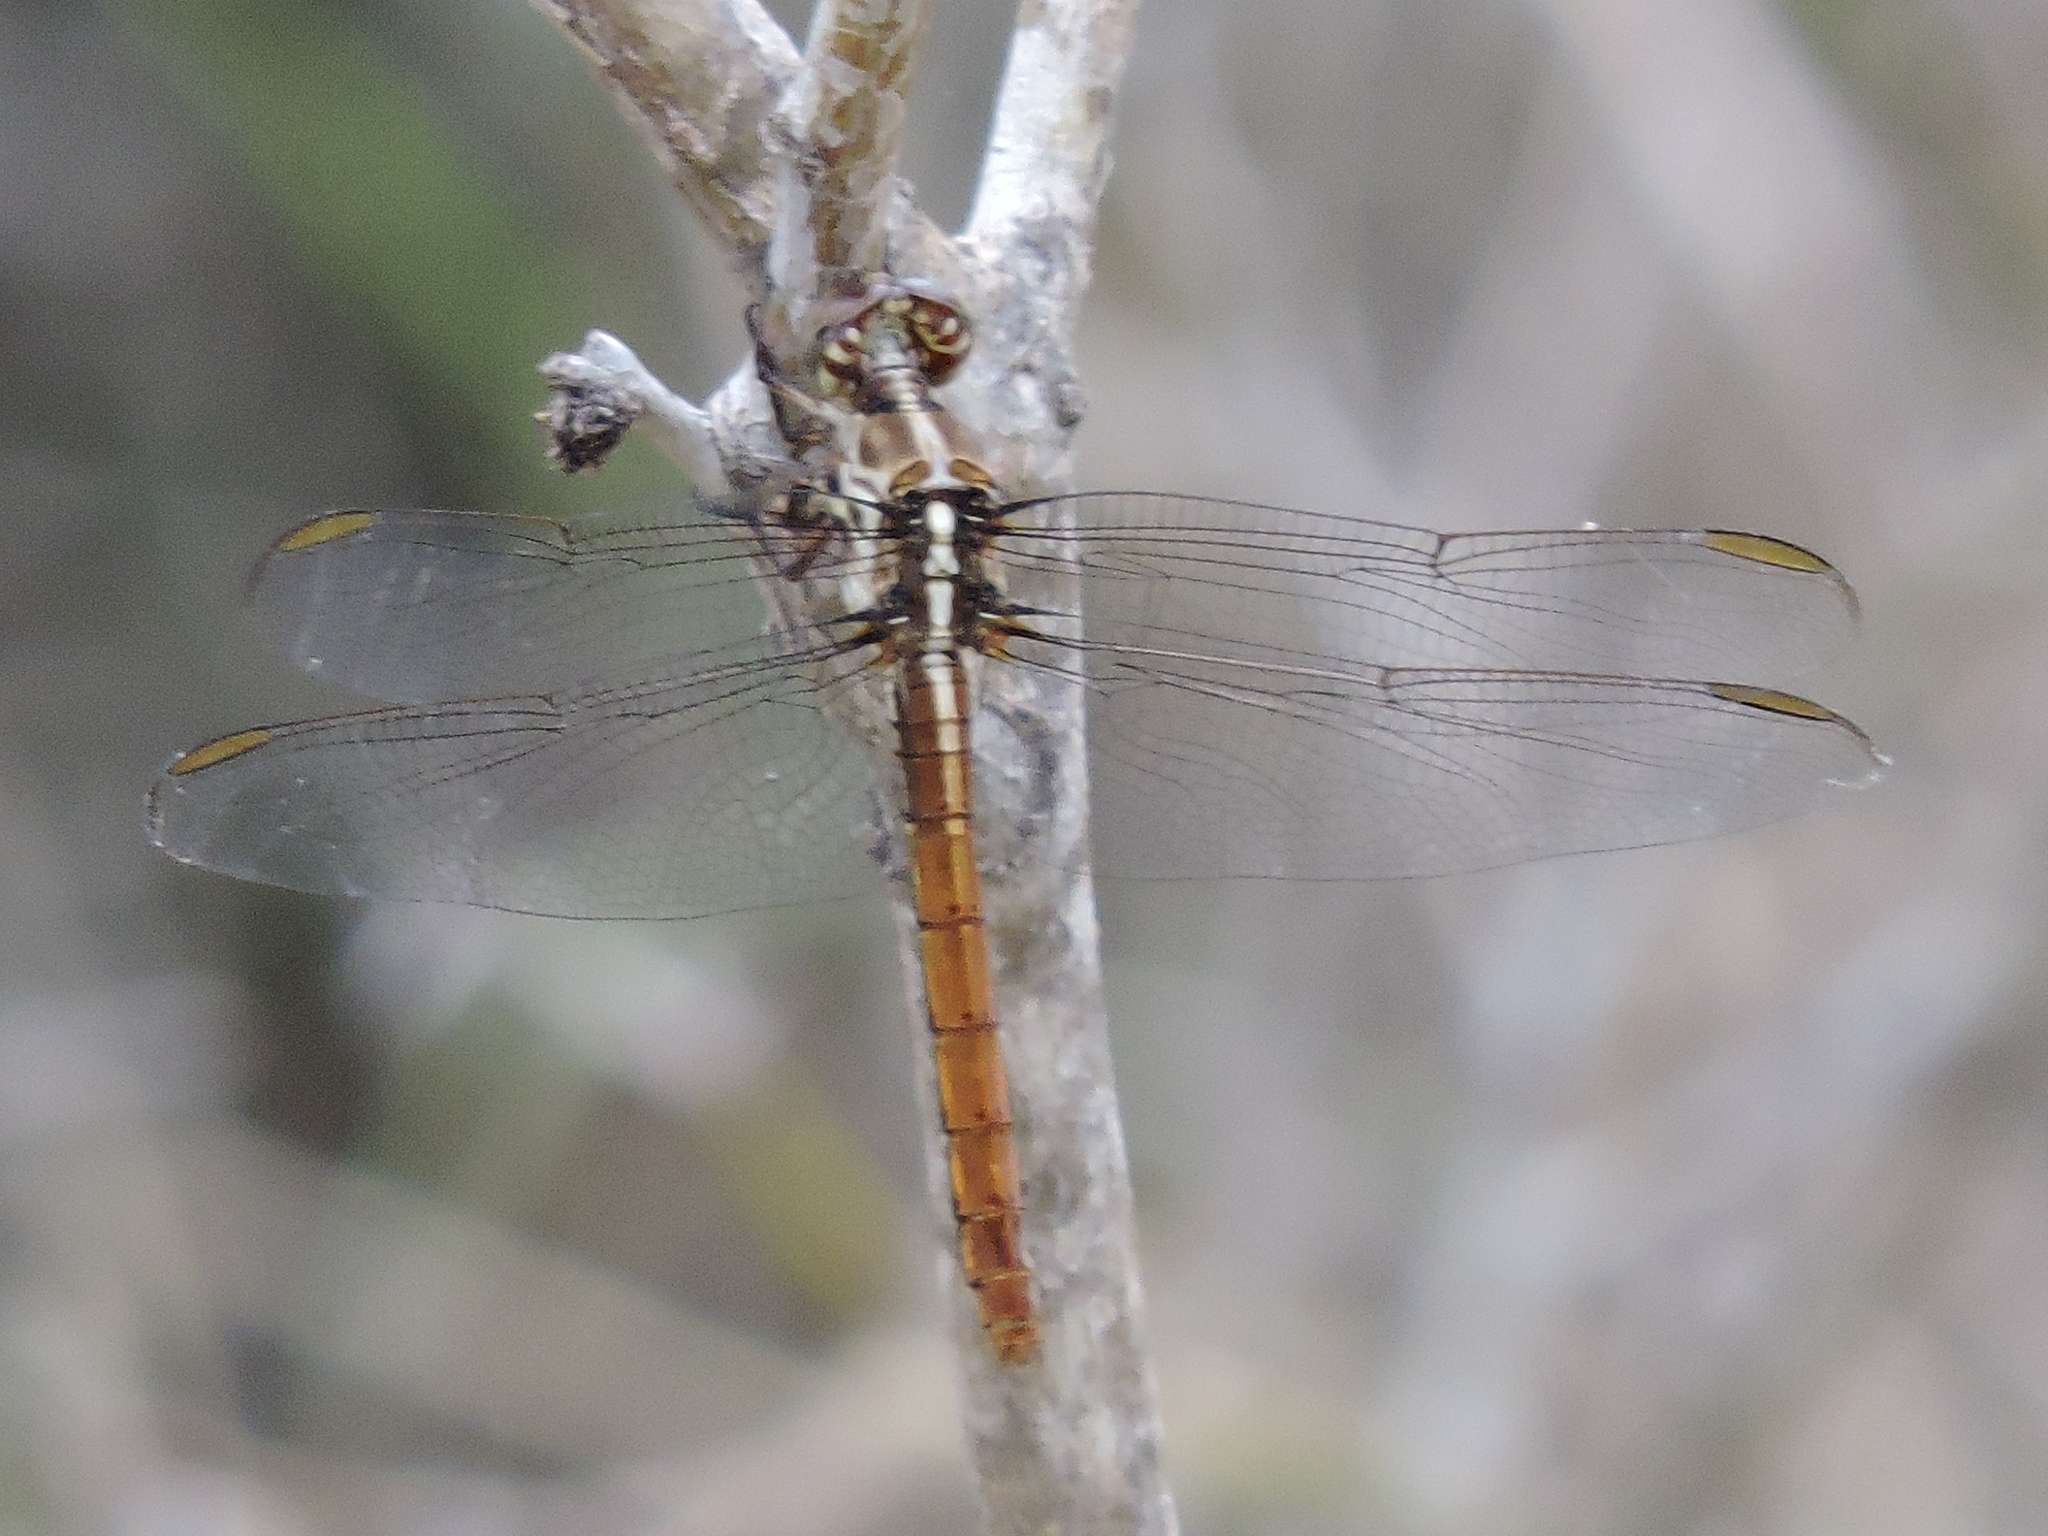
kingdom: Animalia
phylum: Arthropoda
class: Insecta
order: Odonata
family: Libellulidae
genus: Orthemis
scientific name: Orthemis ferruginea
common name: Roseate skimmer
